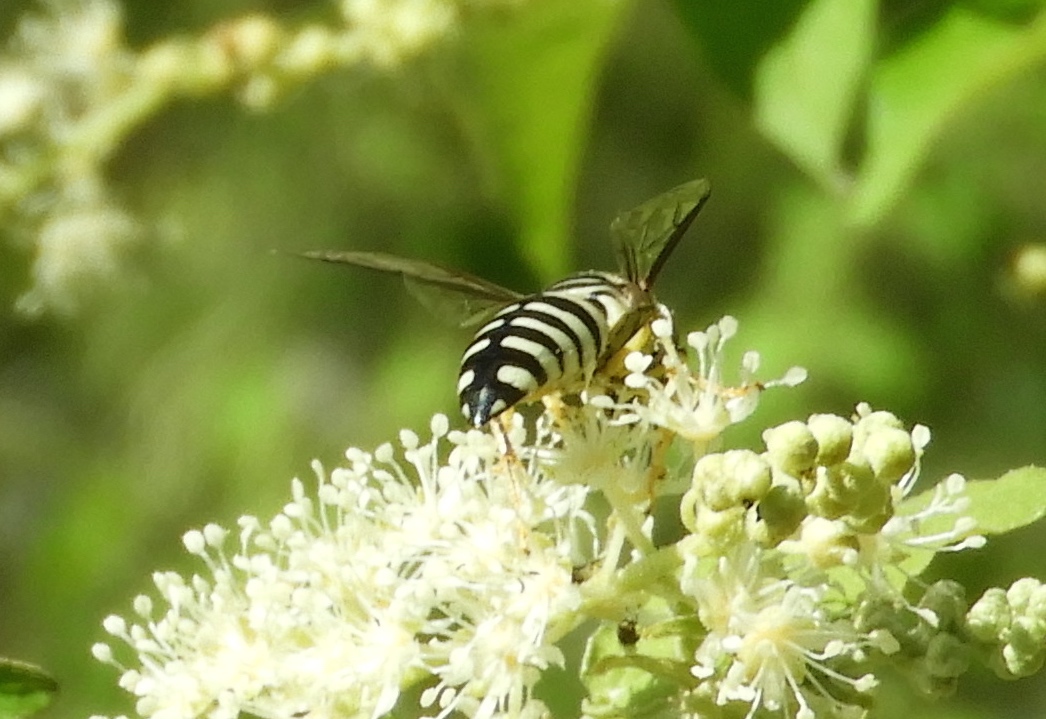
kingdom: Animalia
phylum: Arthropoda
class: Insecta
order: Hymenoptera
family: Crabronidae
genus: Bicyrtes
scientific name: Bicyrtes variegatus
